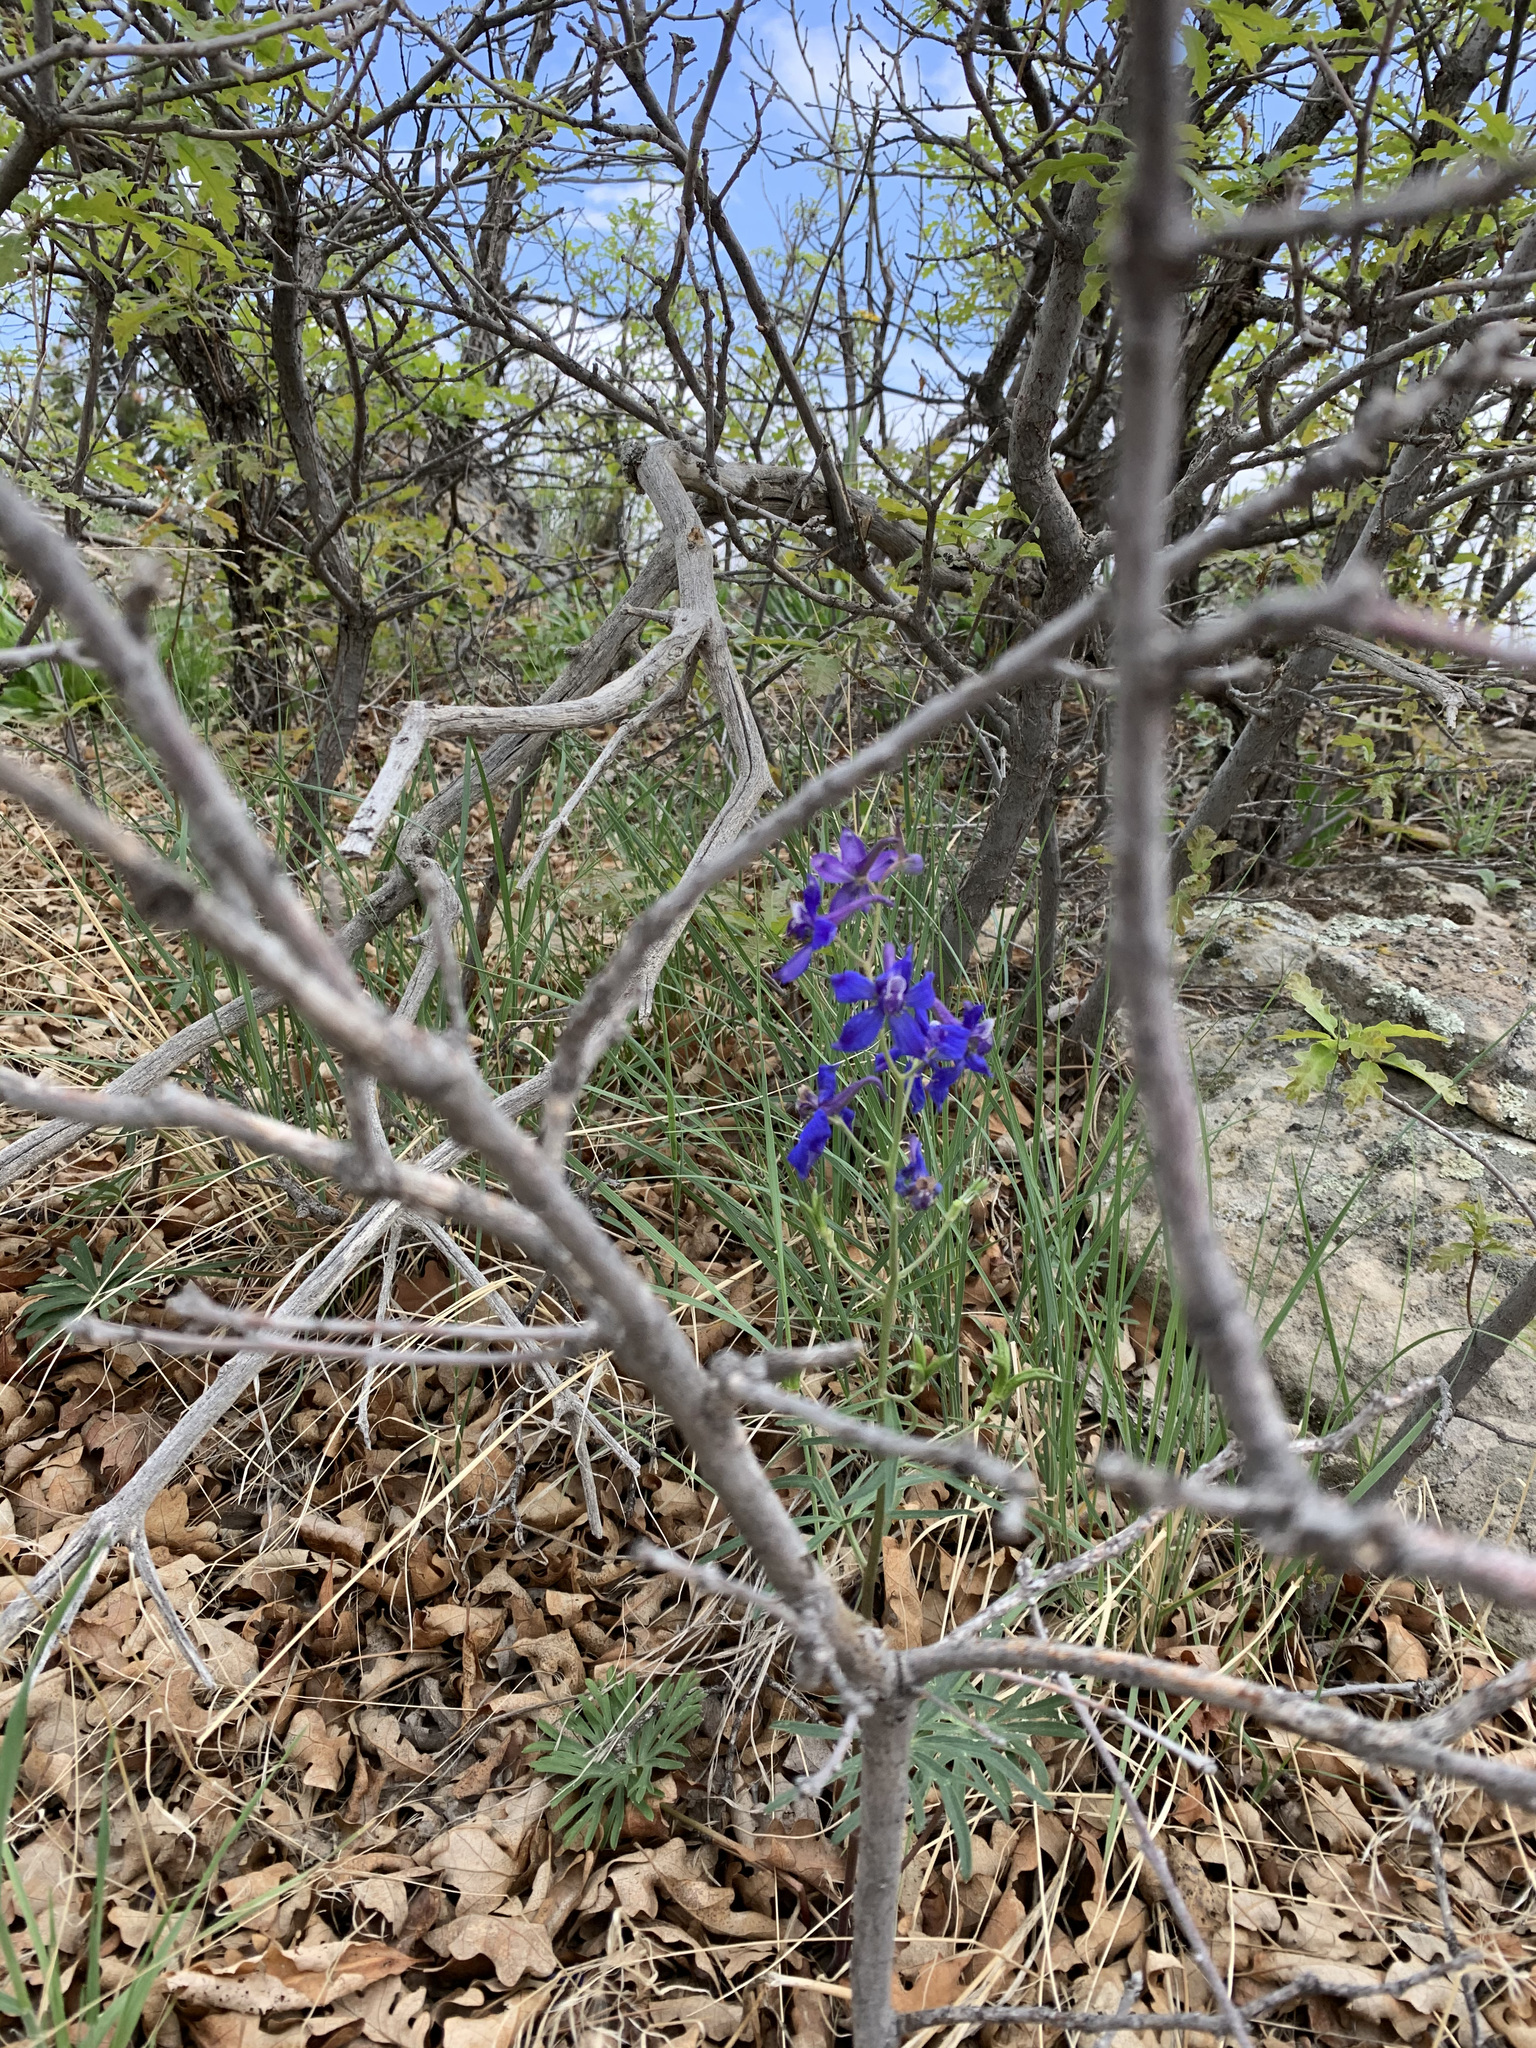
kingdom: Plantae
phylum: Tracheophyta
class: Magnoliopsida
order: Ranunculales
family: Ranunculaceae
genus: Delphinium
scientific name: Delphinium nuttallianum
